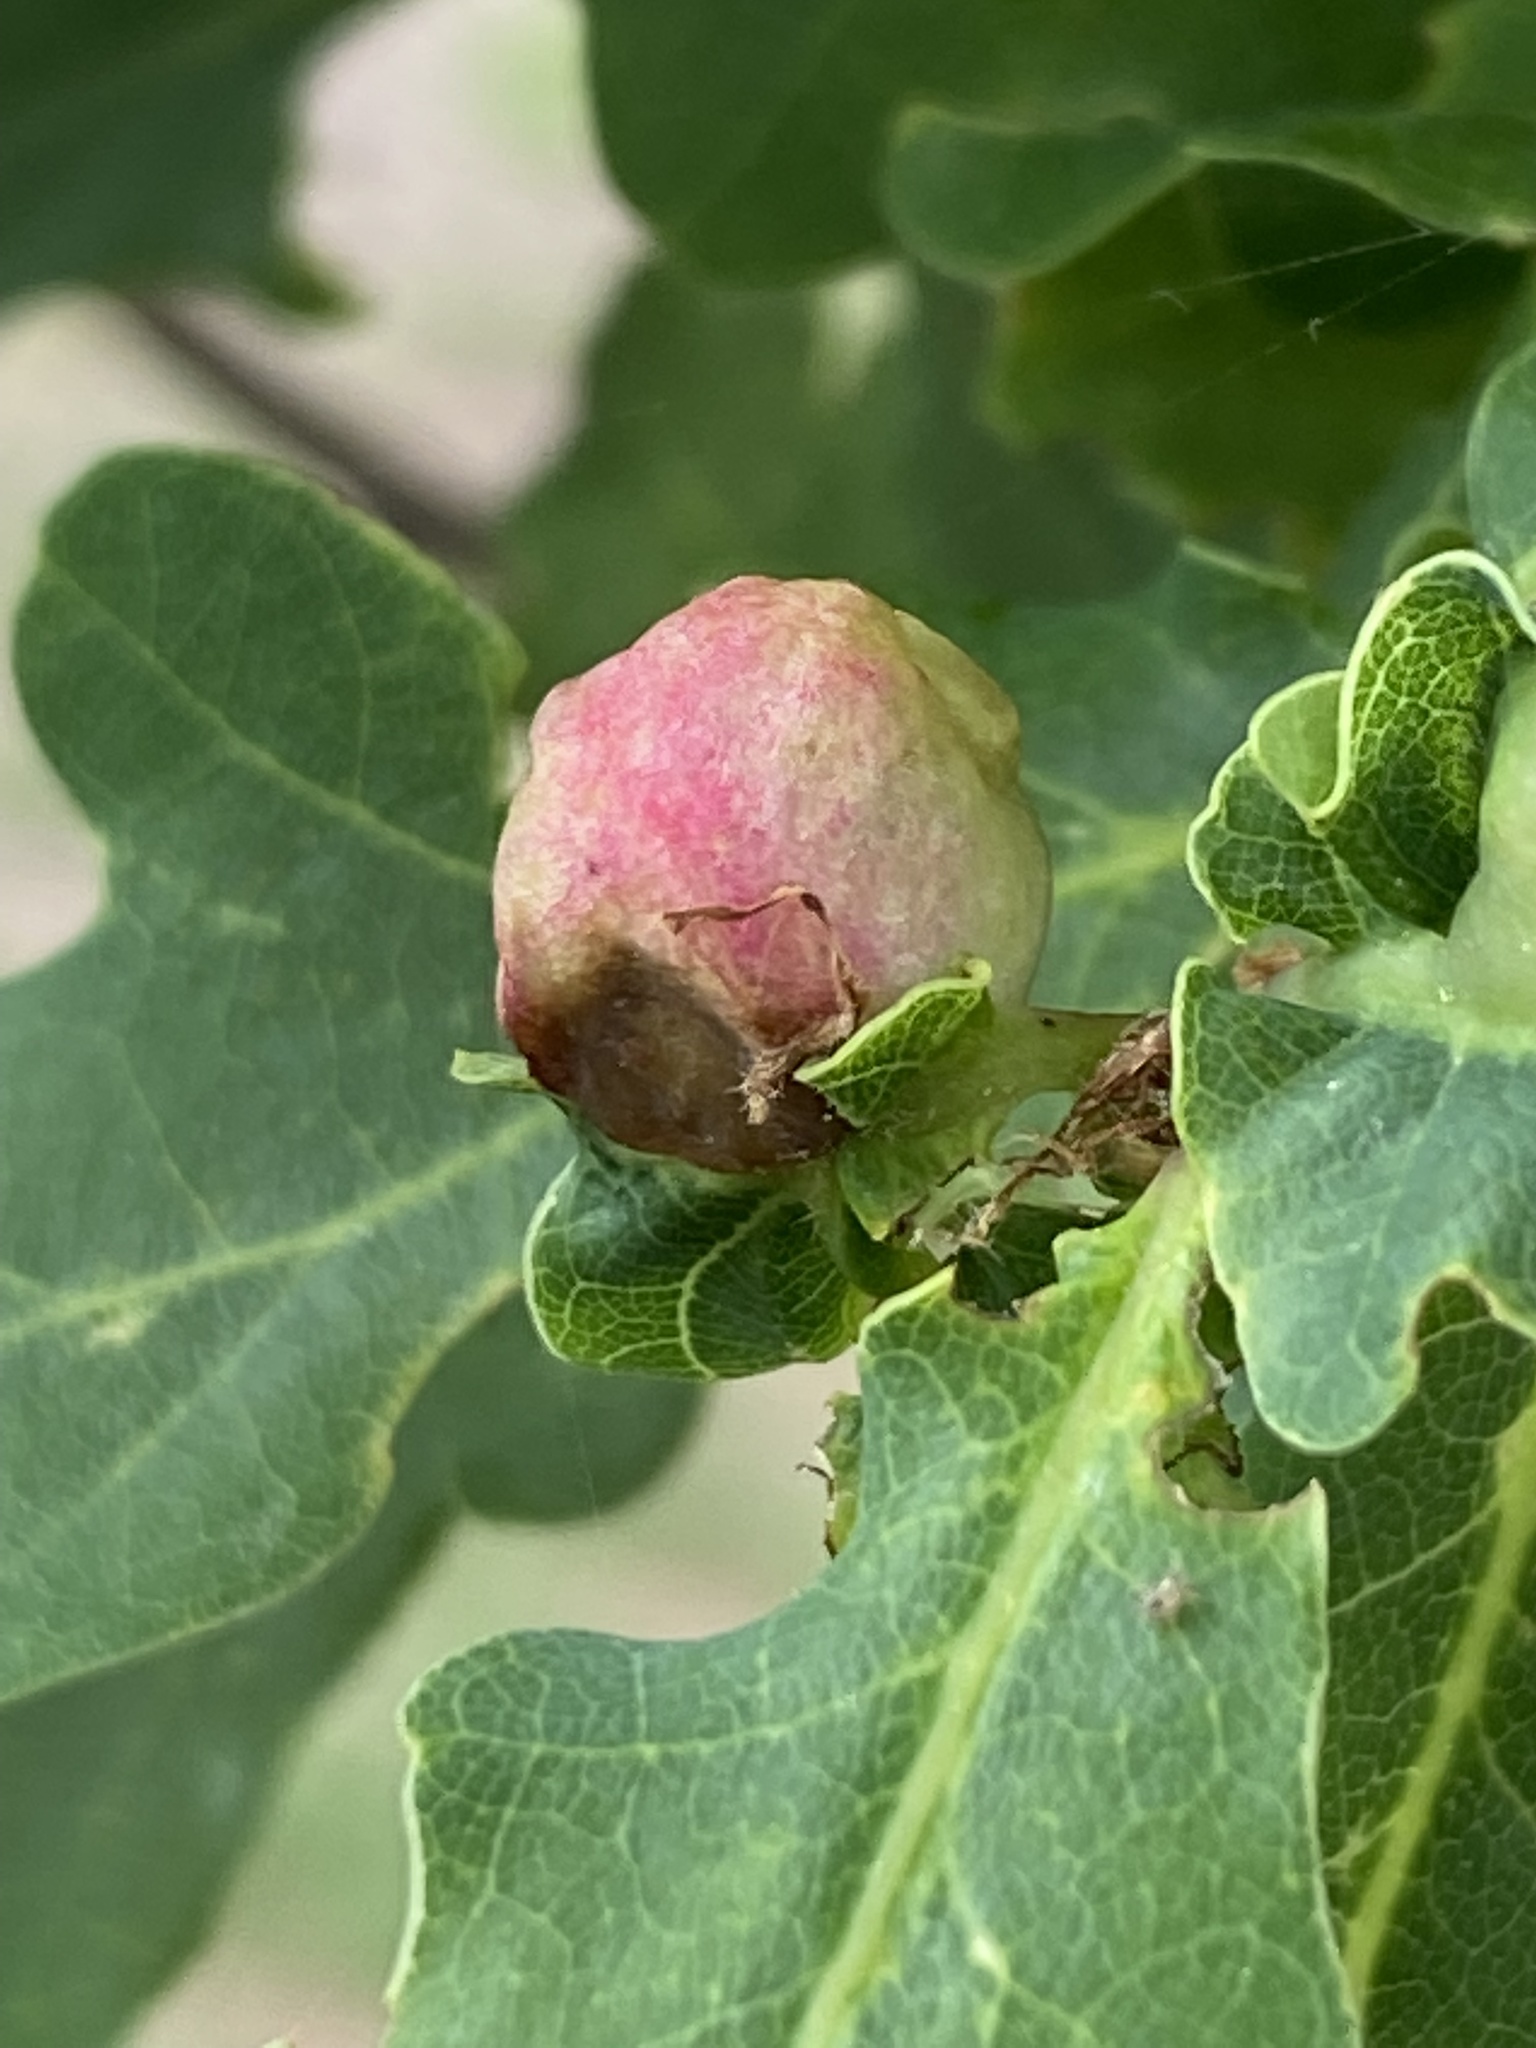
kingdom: Animalia
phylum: Arthropoda
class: Insecta
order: Hymenoptera
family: Cynipidae
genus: Biorhiza
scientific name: Biorhiza pallida
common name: Oak apple
